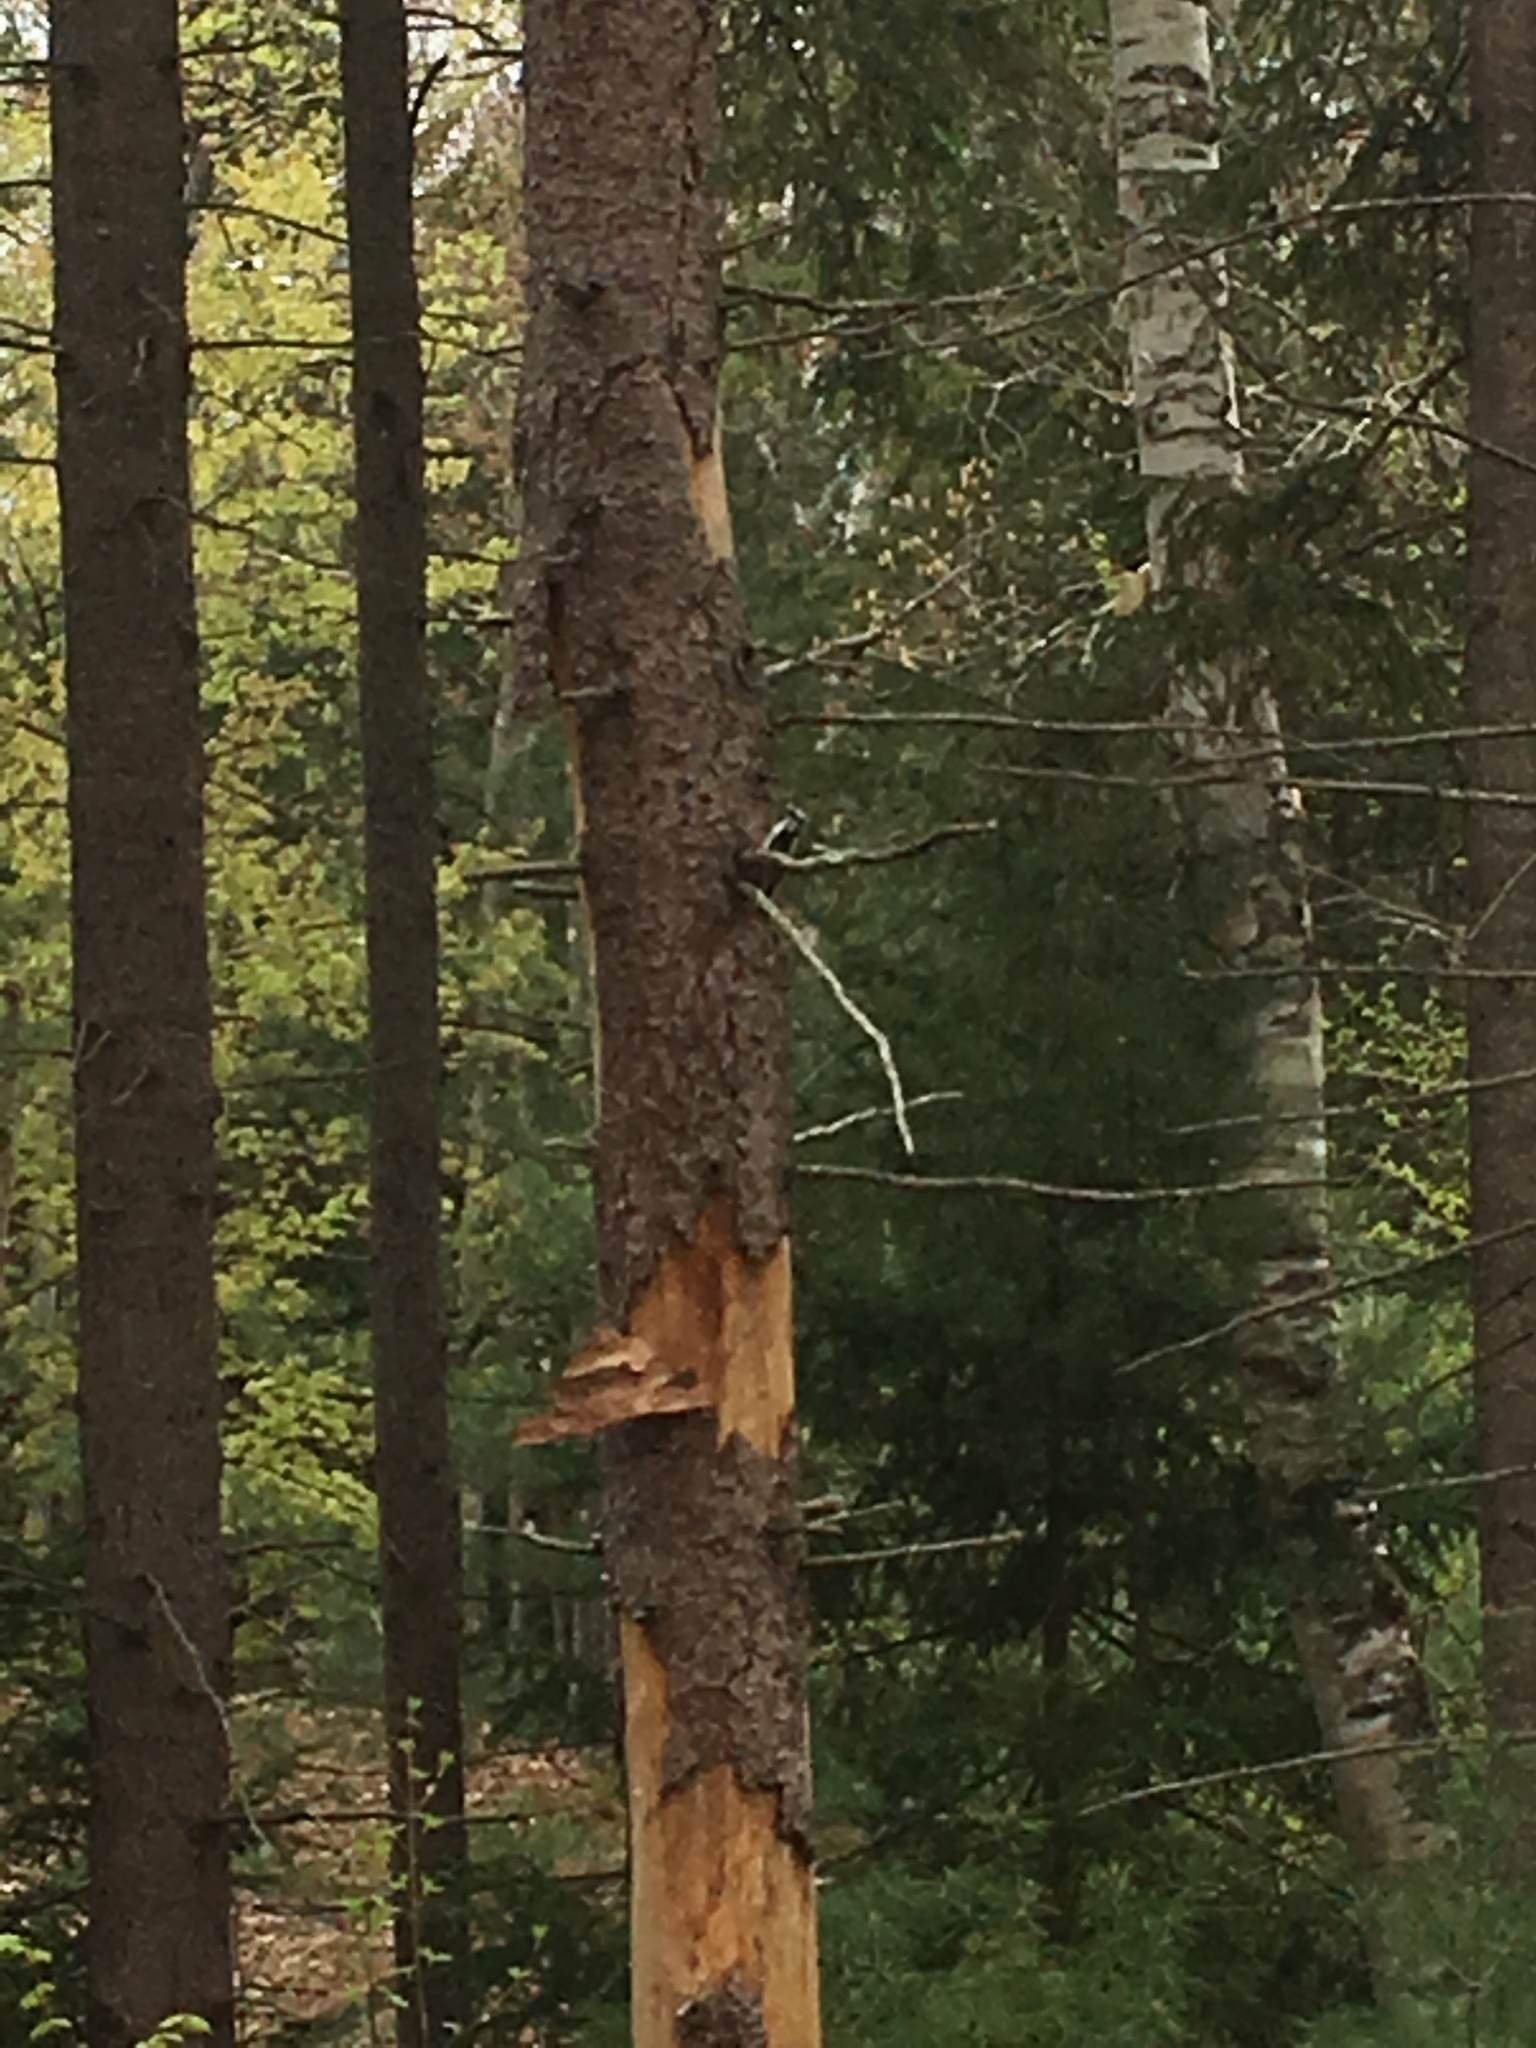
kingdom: Animalia
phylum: Chordata
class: Aves
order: Piciformes
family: Picidae
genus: Dryobates
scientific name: Dryobates pubescens
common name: Downy woodpecker
